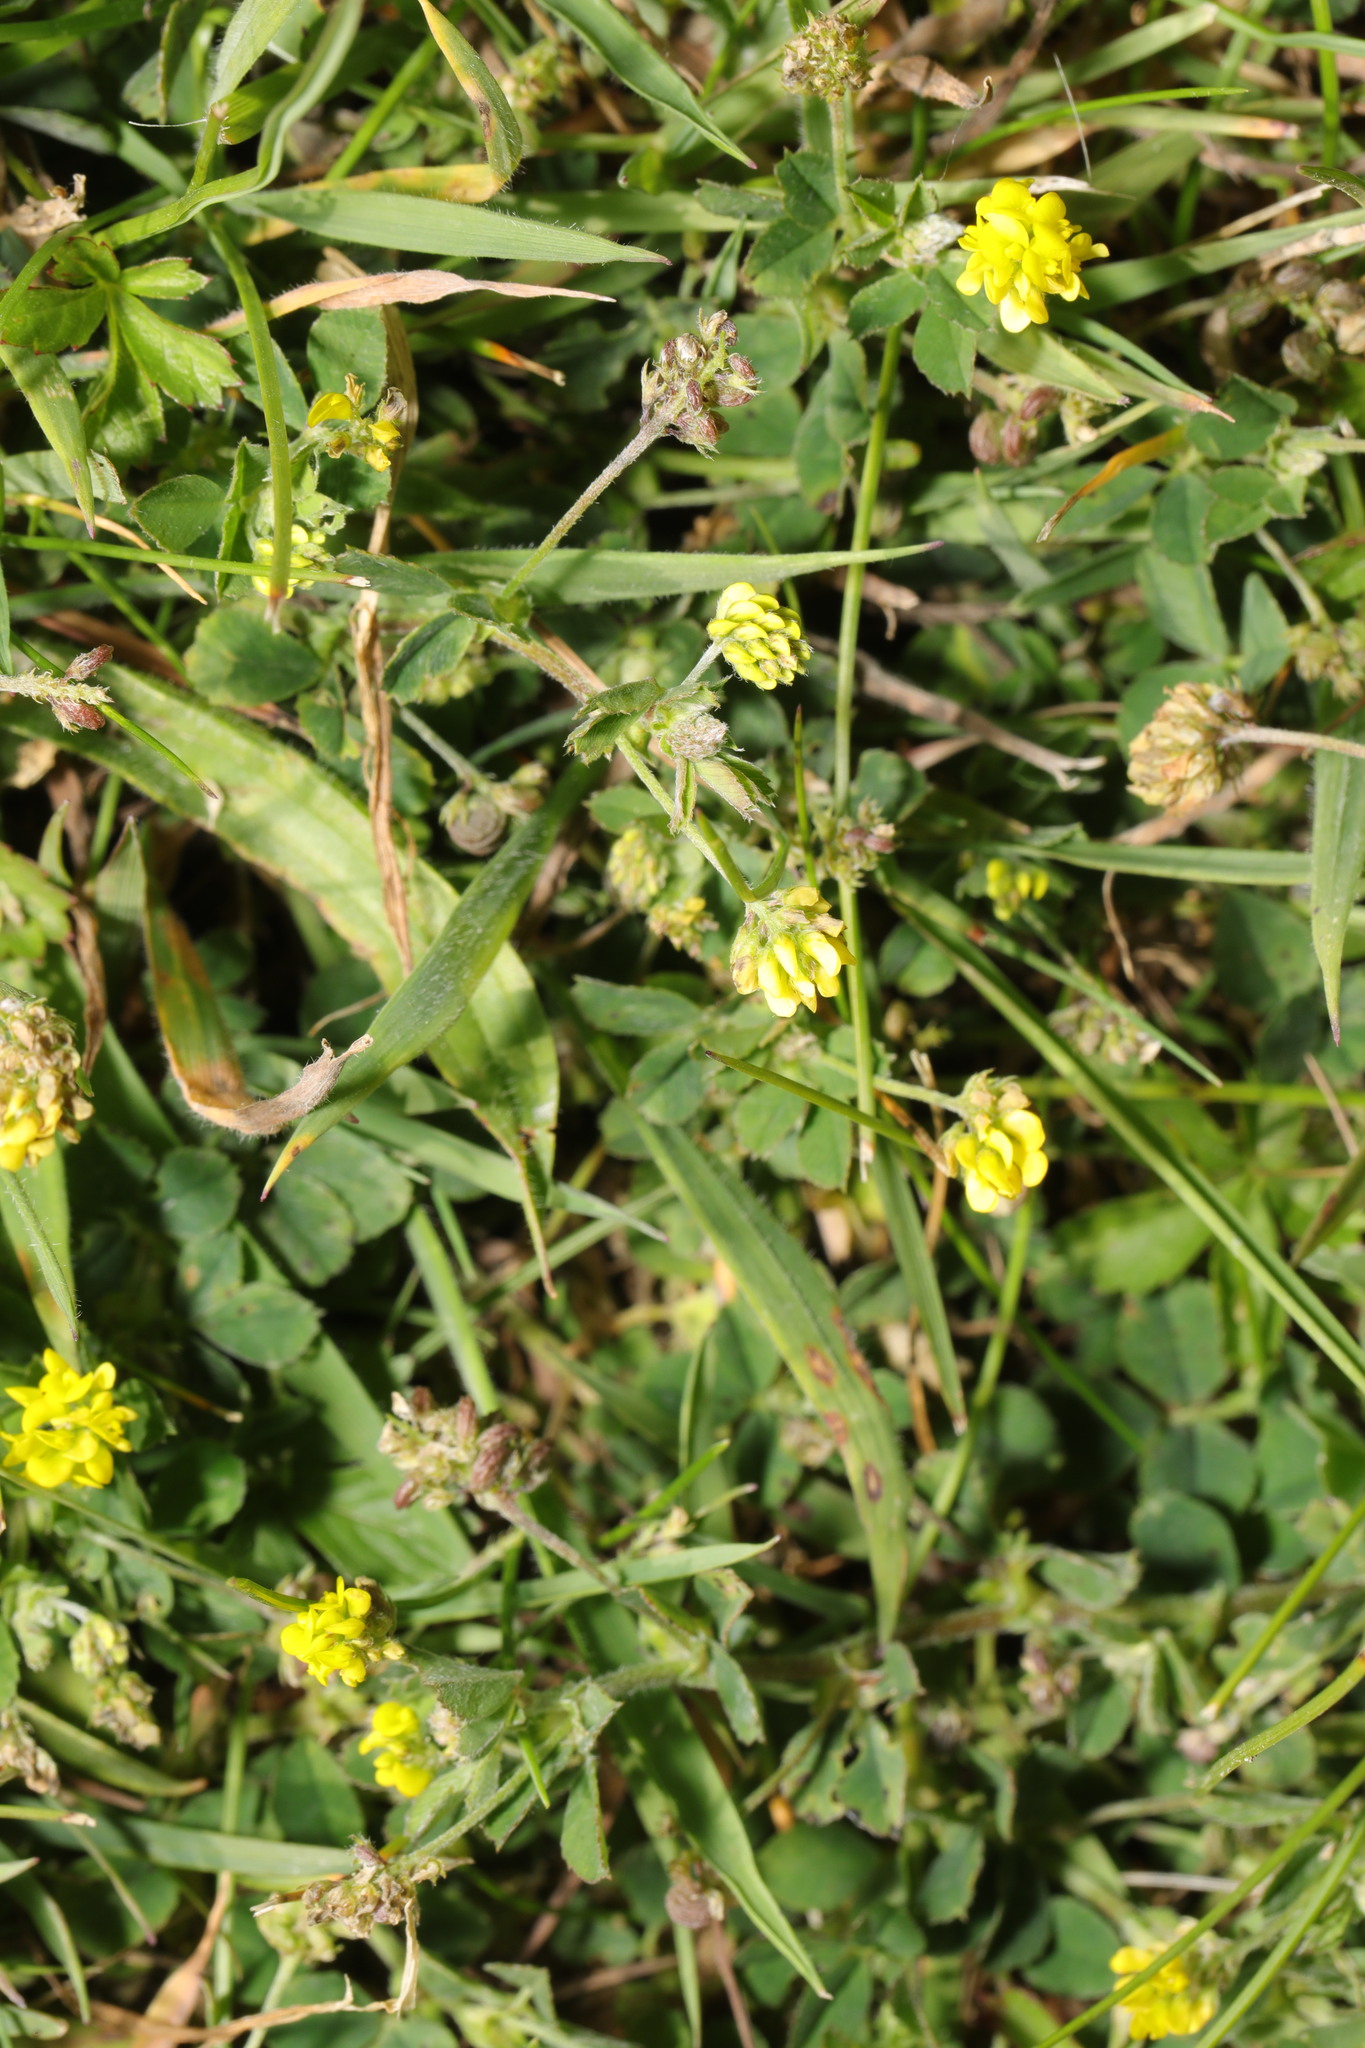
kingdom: Plantae
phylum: Tracheophyta
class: Magnoliopsida
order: Fabales
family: Fabaceae
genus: Medicago
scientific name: Medicago lupulina
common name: Black medick
